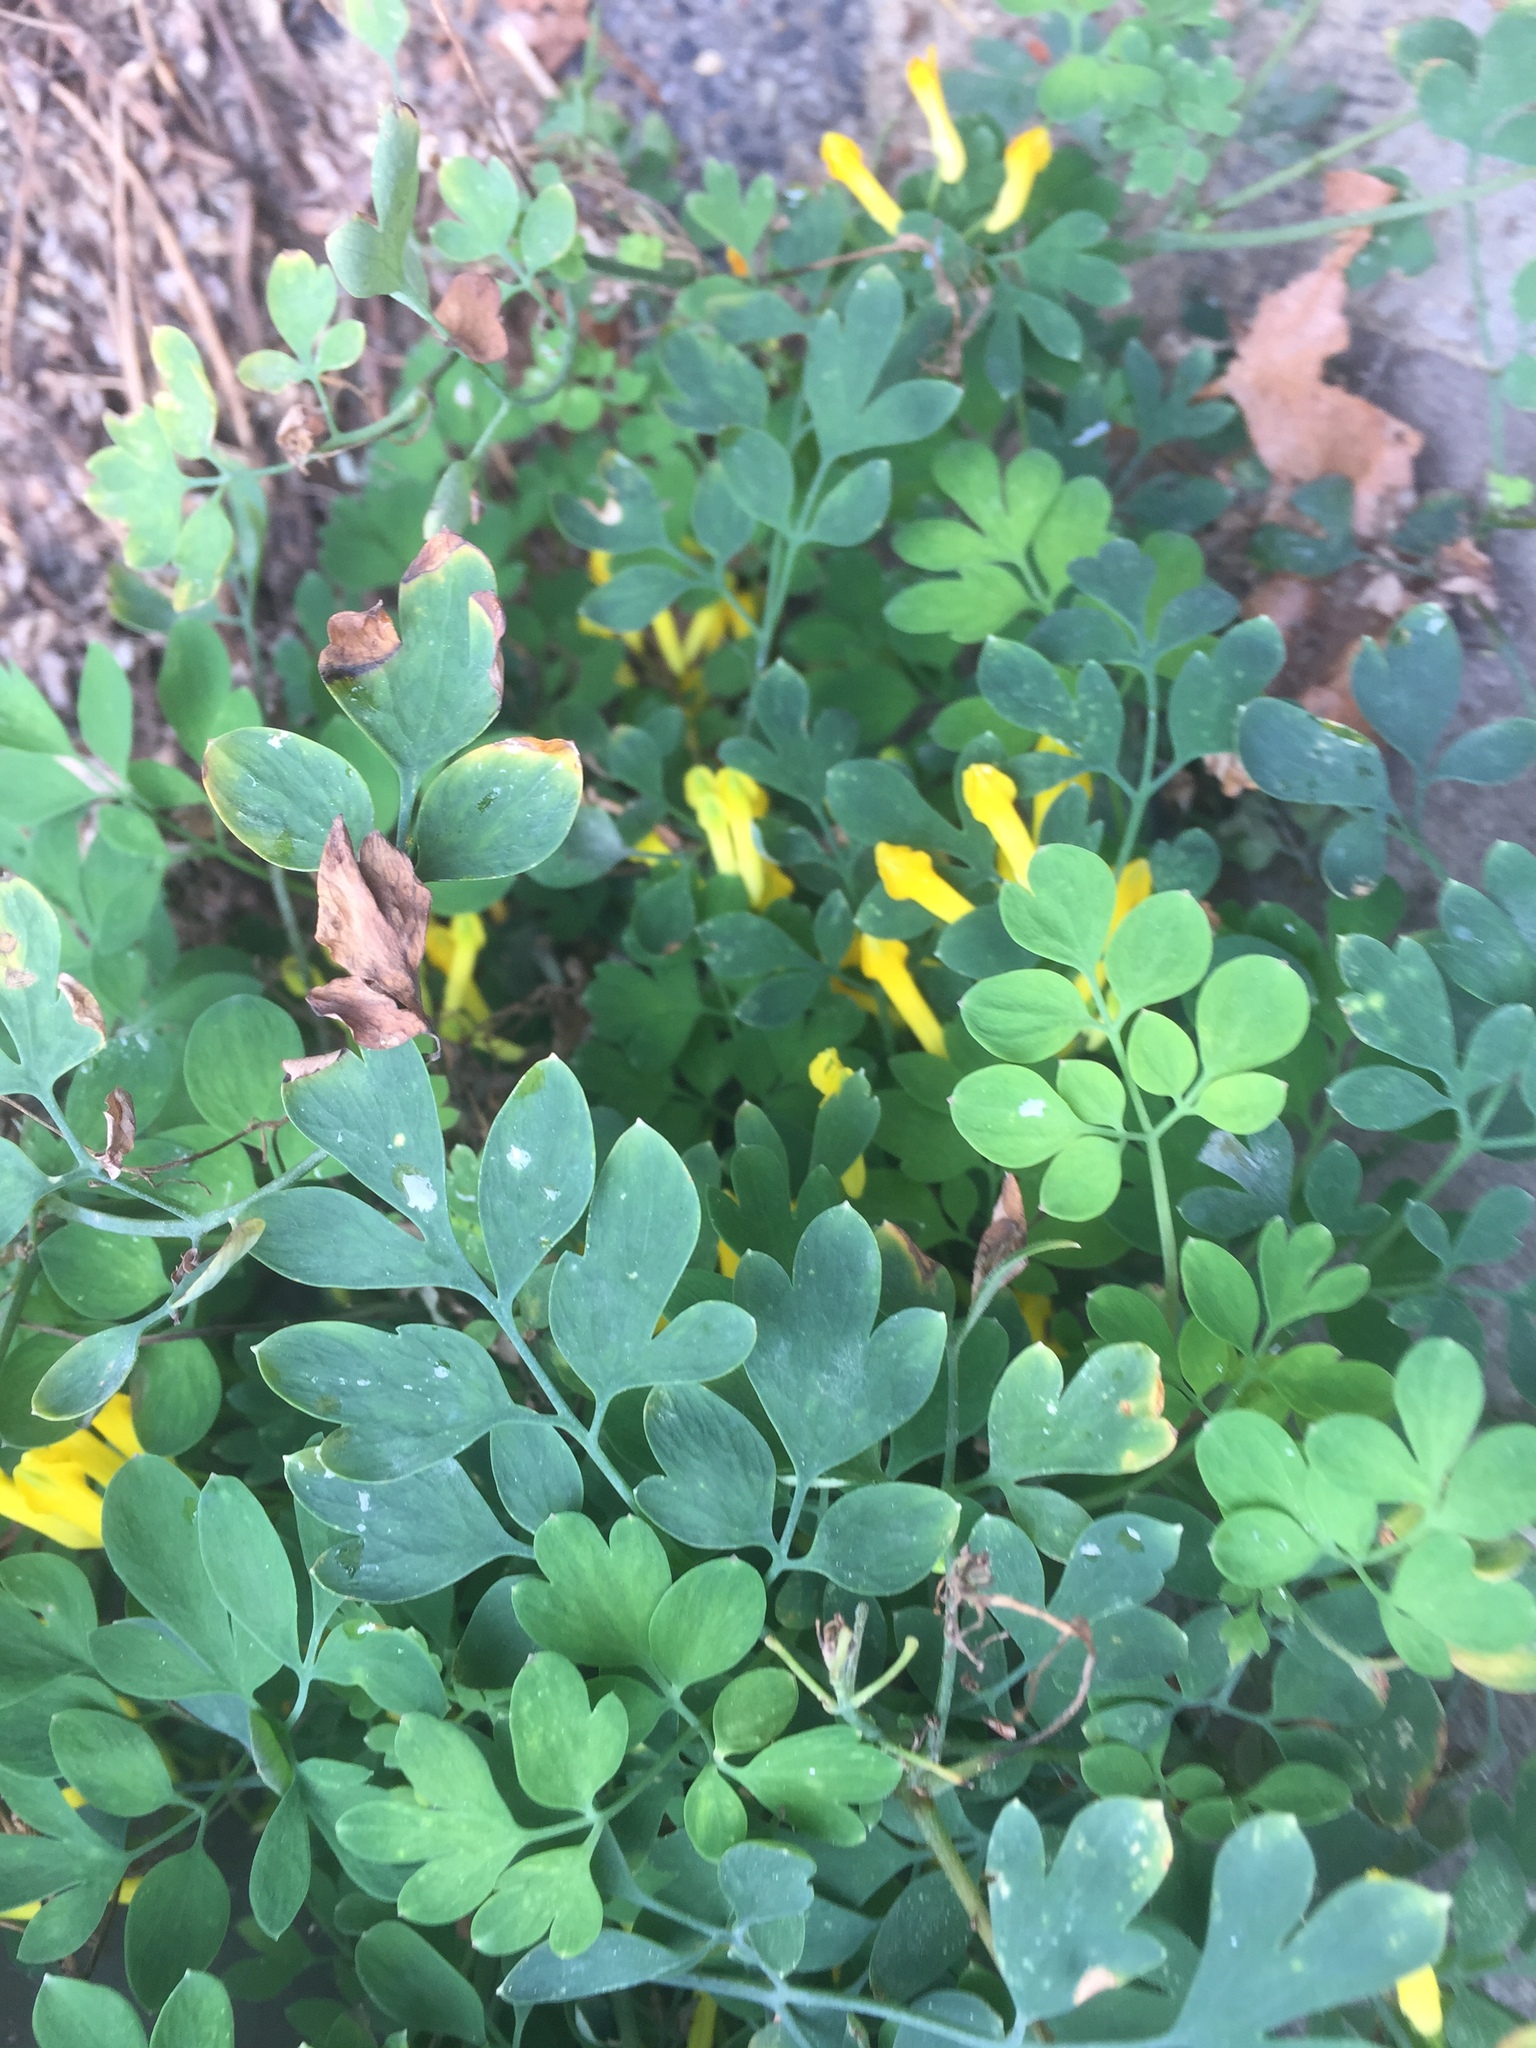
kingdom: Plantae
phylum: Tracheophyta
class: Magnoliopsida
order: Ranunculales
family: Papaveraceae
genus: Pseudofumaria
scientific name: Pseudofumaria lutea
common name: Yellow corydalis
